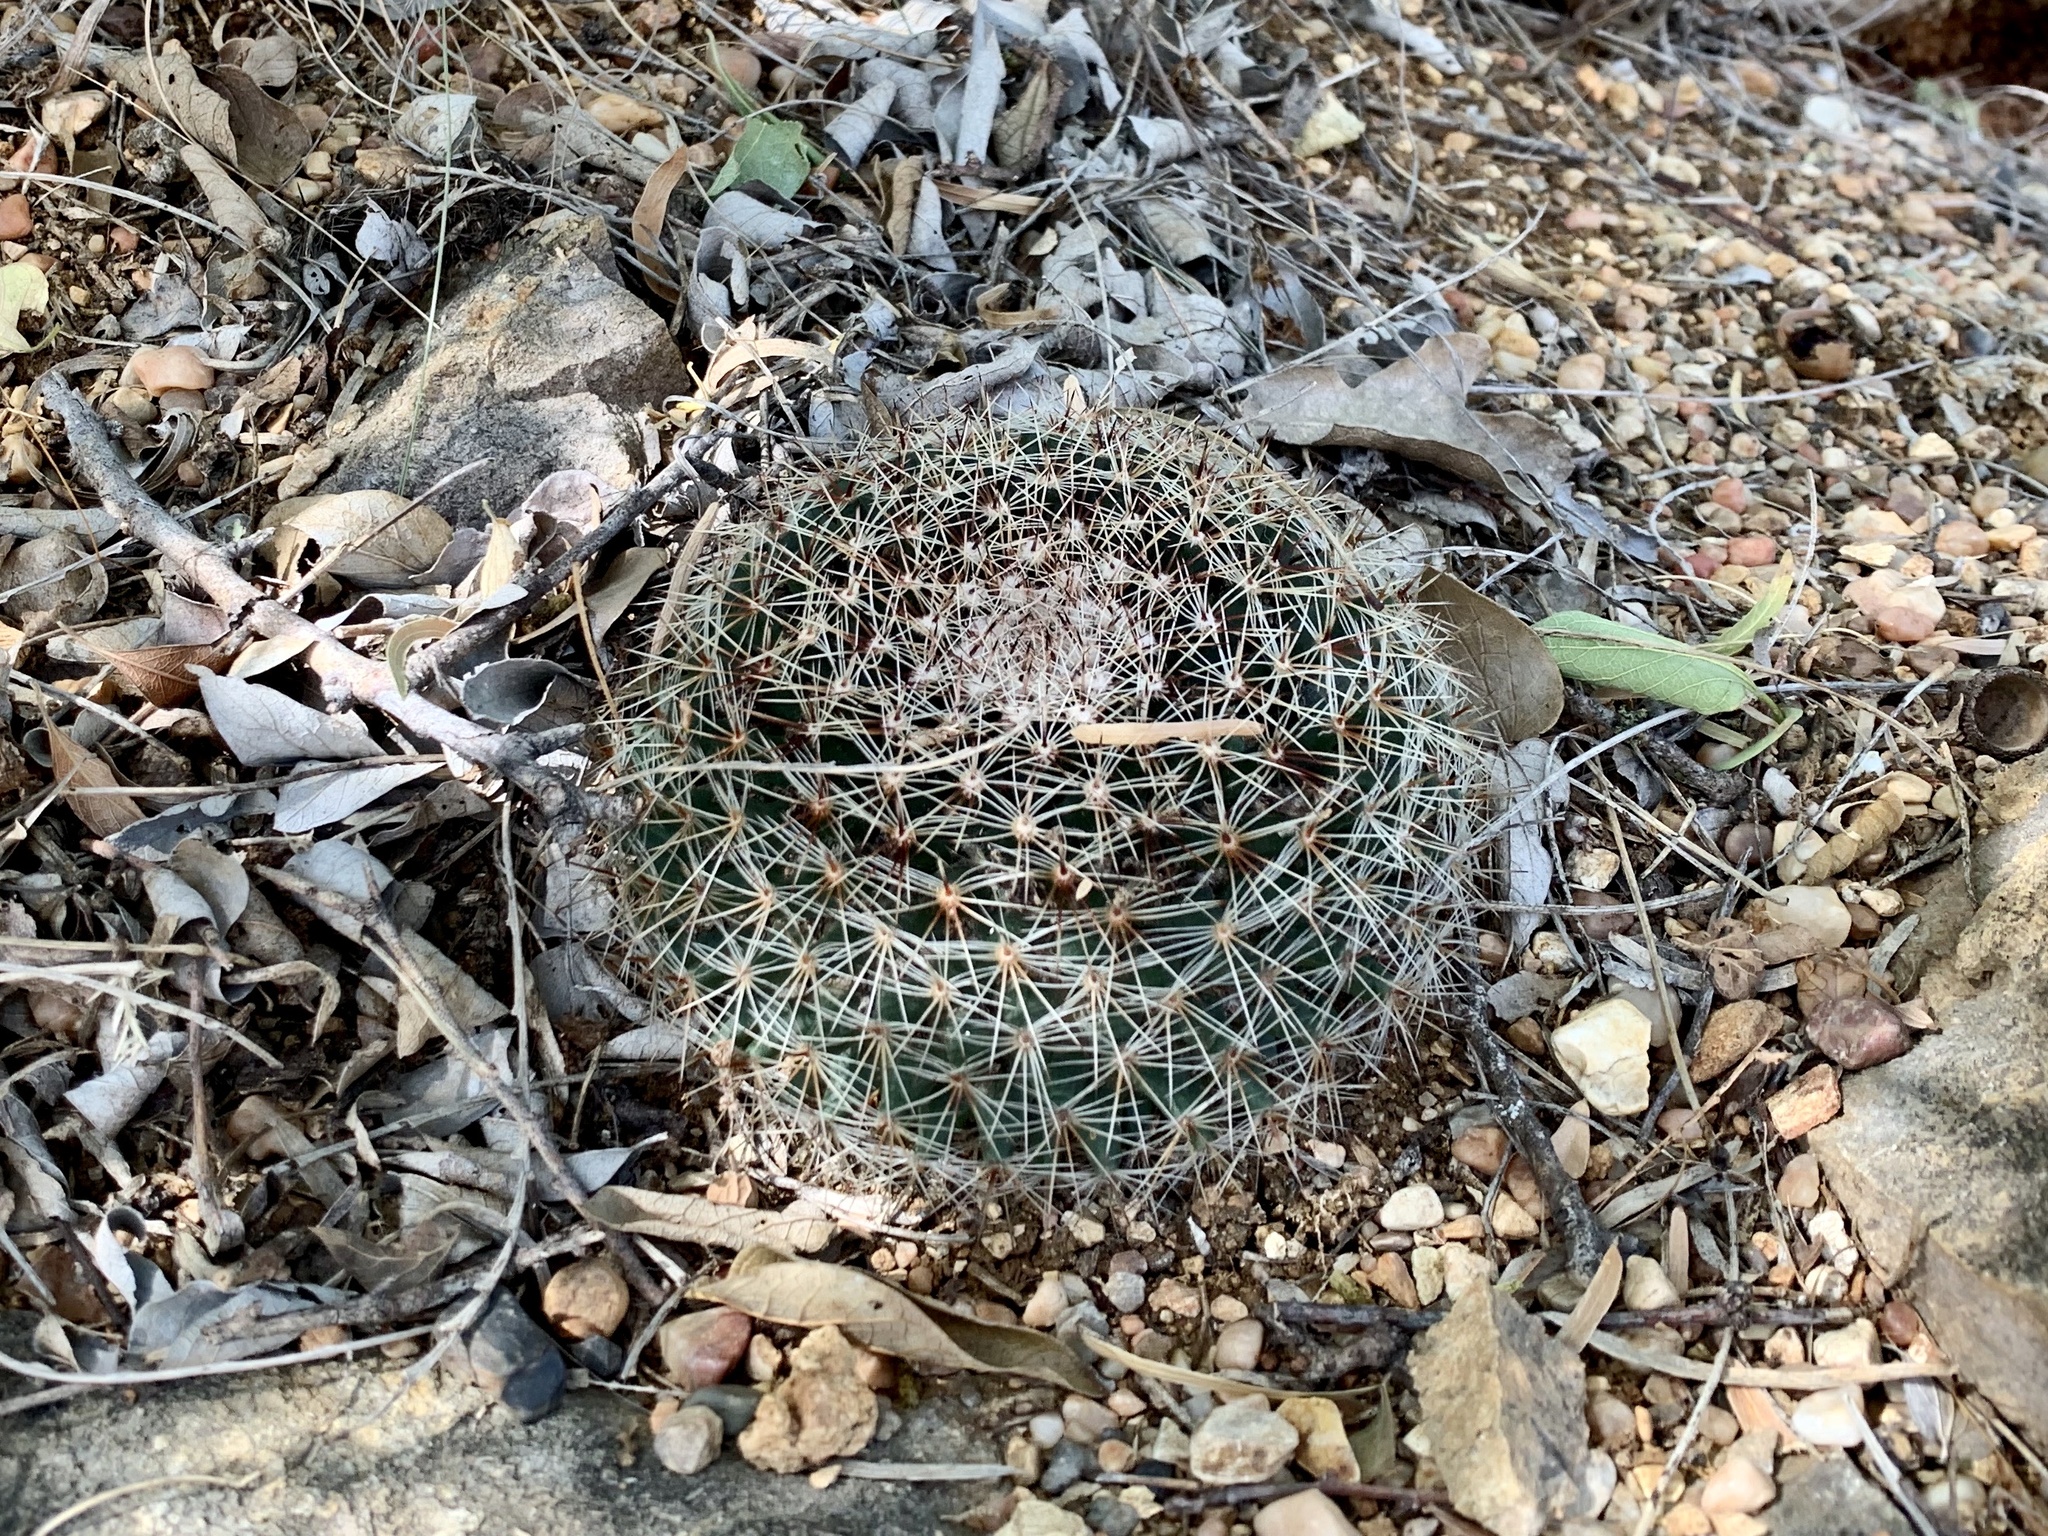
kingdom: Plantae
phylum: Tracheophyta
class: Magnoliopsida
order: Caryophyllales
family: Cactaceae
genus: Mammillaria
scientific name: Mammillaria heyderi
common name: Little nipple cactus
